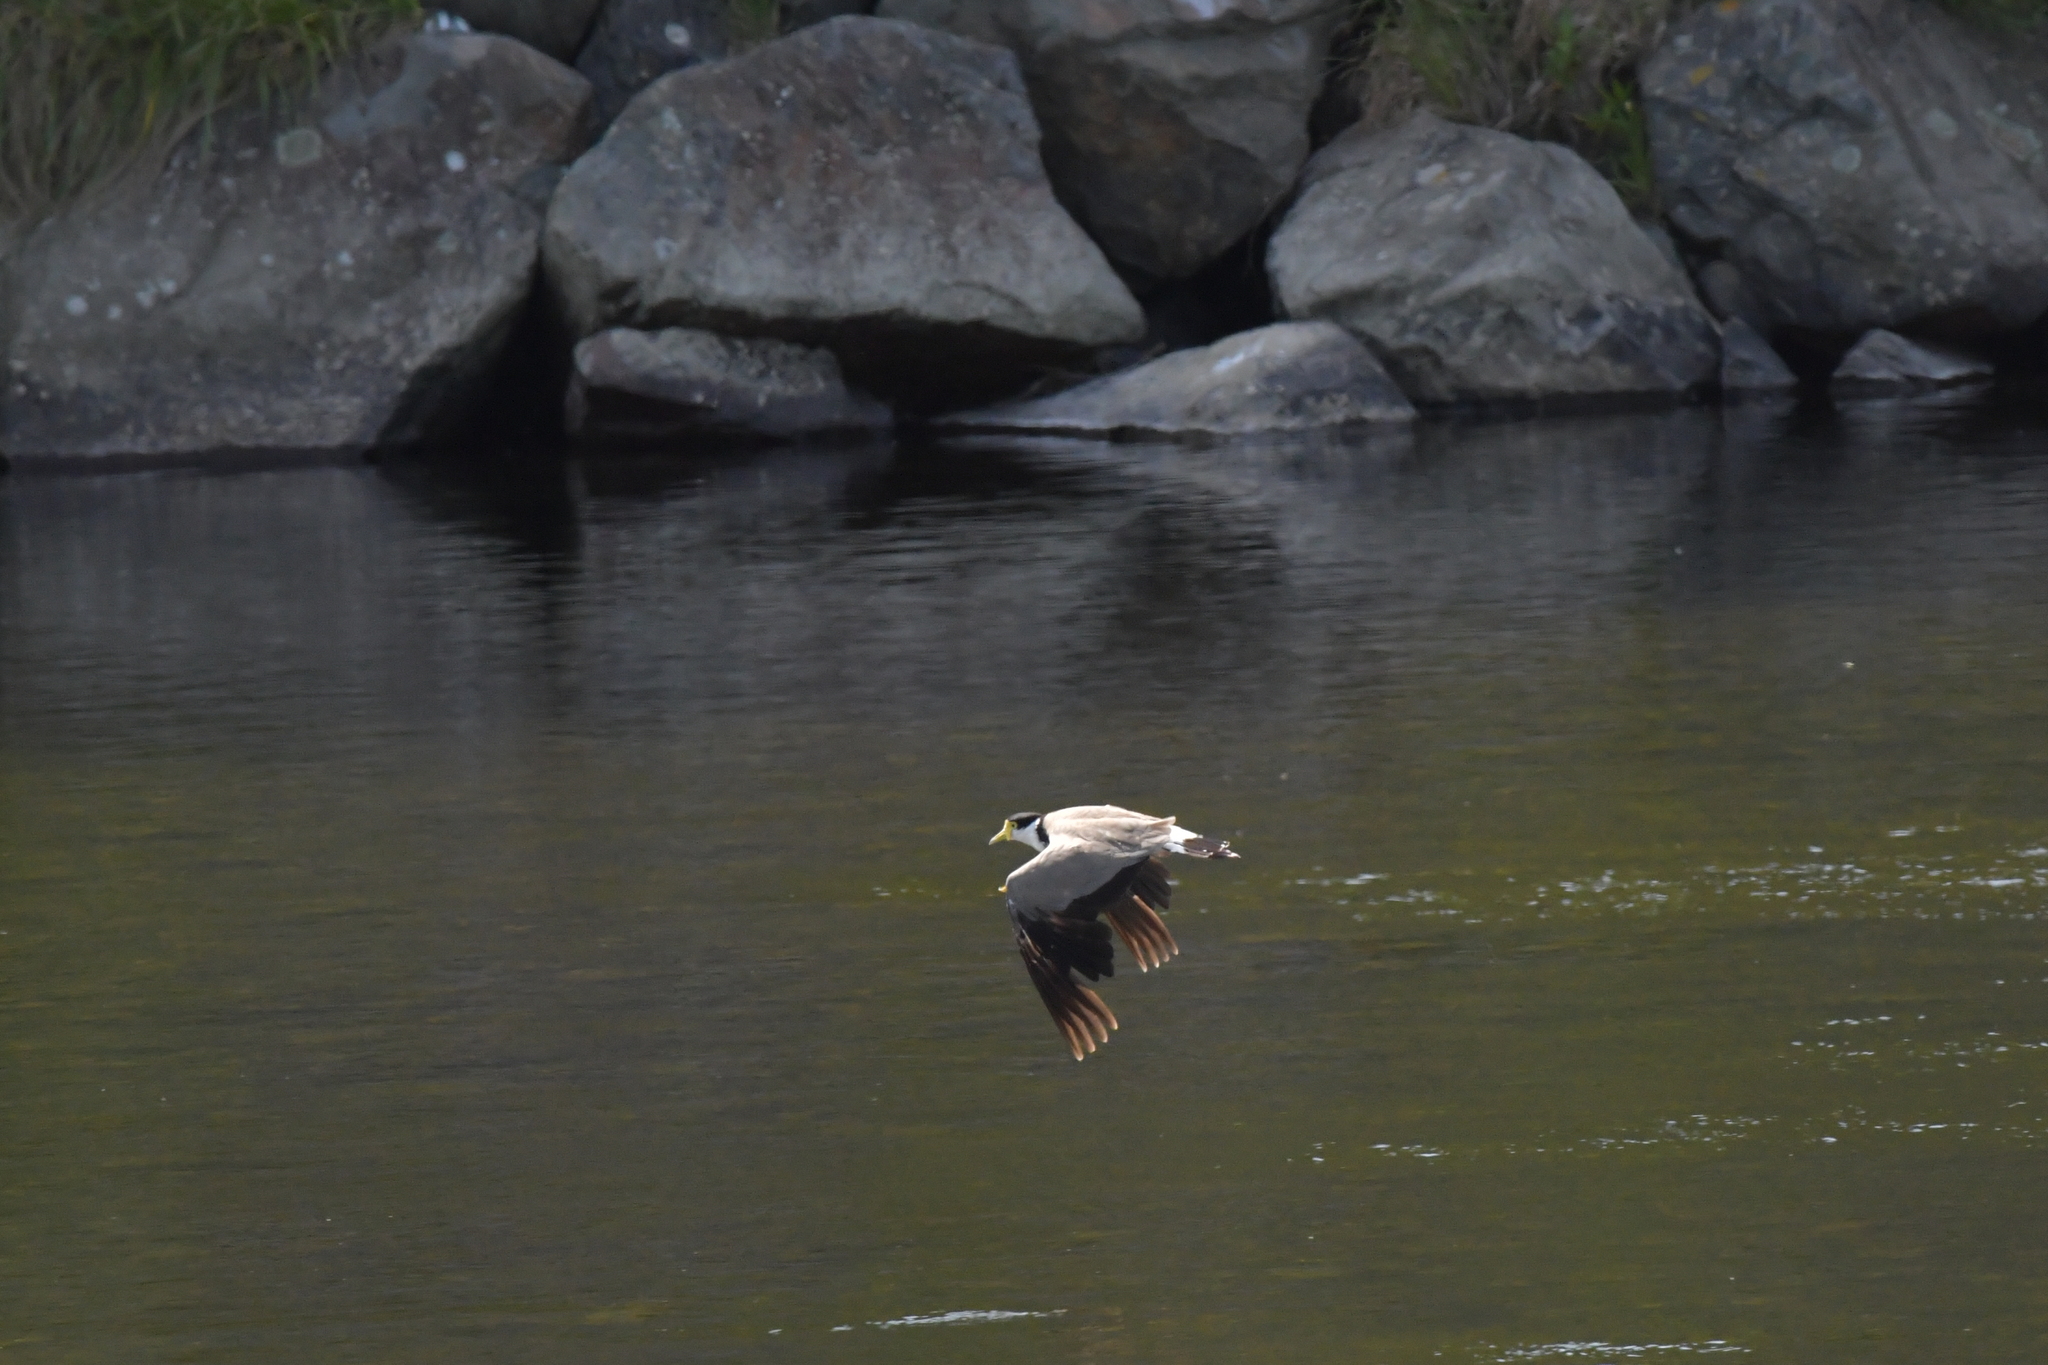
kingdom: Animalia
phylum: Chordata
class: Aves
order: Charadriiformes
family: Charadriidae
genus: Vanellus
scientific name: Vanellus miles
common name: Masked lapwing
